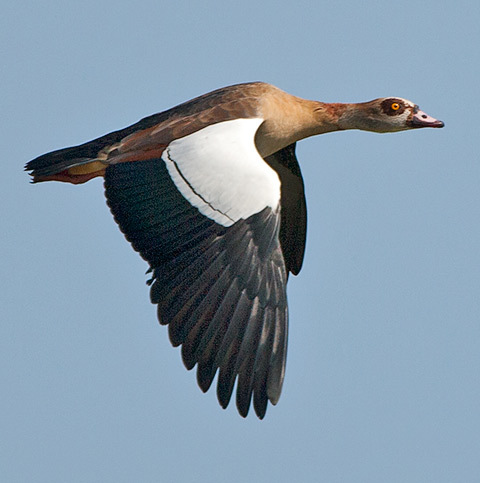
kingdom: Animalia
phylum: Chordata
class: Aves
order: Anseriformes
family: Anatidae
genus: Alopochen
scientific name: Alopochen aegyptiaca
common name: Egyptian goose
